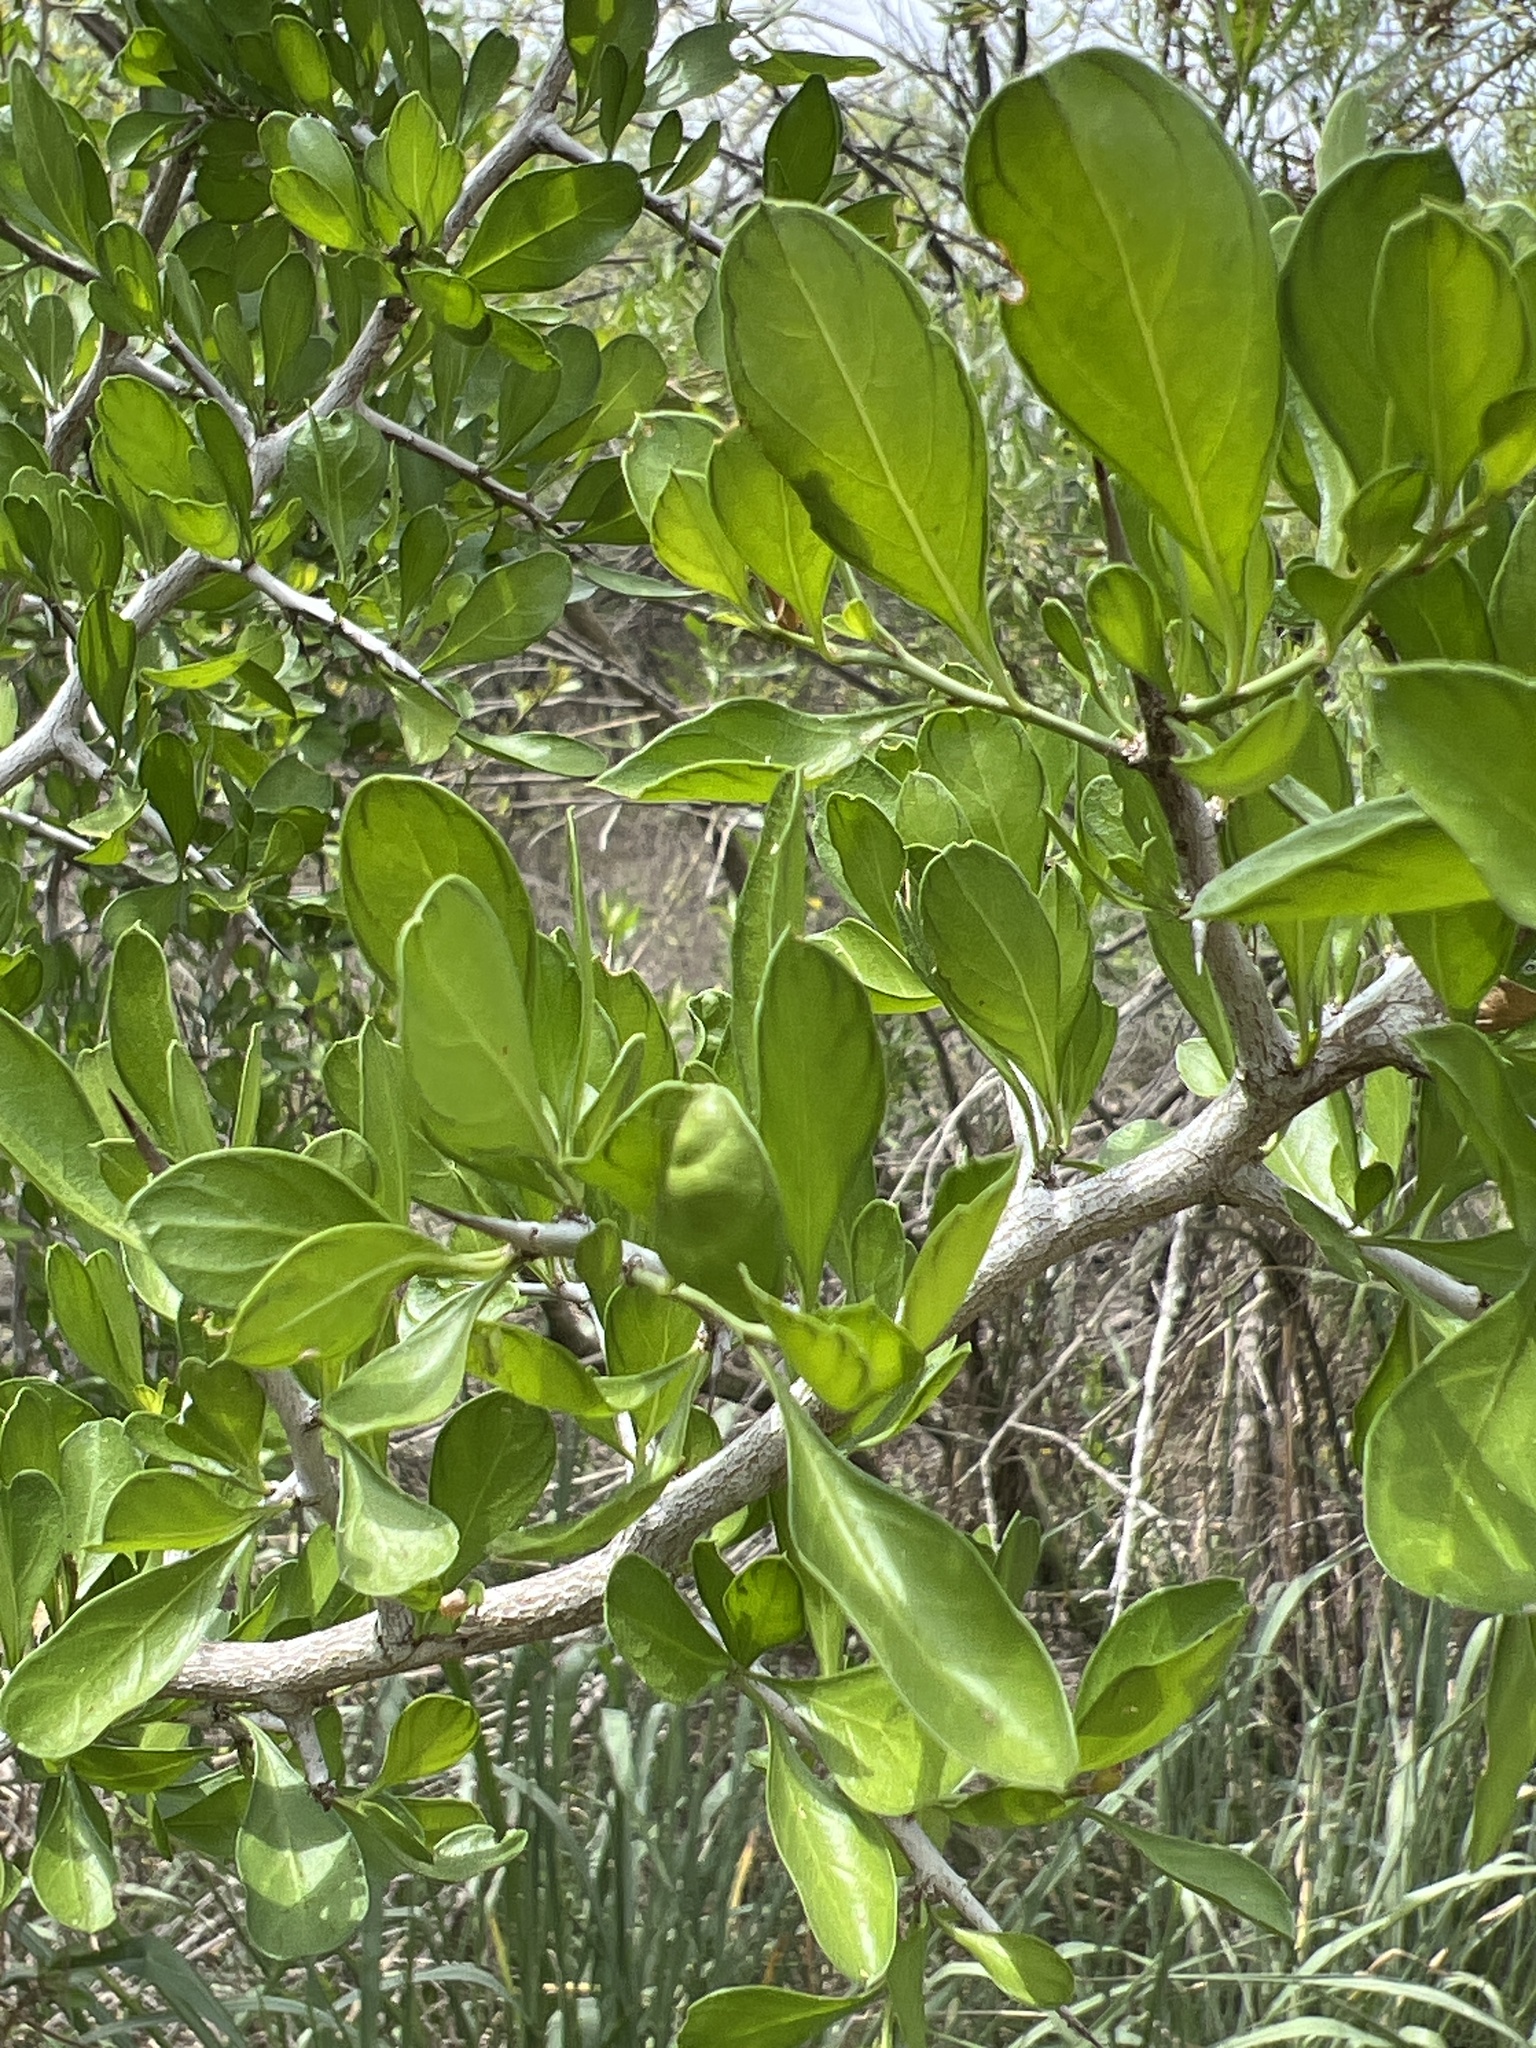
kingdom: Plantae
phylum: Tracheophyta
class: Magnoliopsida
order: Rosales
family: Rhamnaceae
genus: Condalia
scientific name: Condalia hookeri
